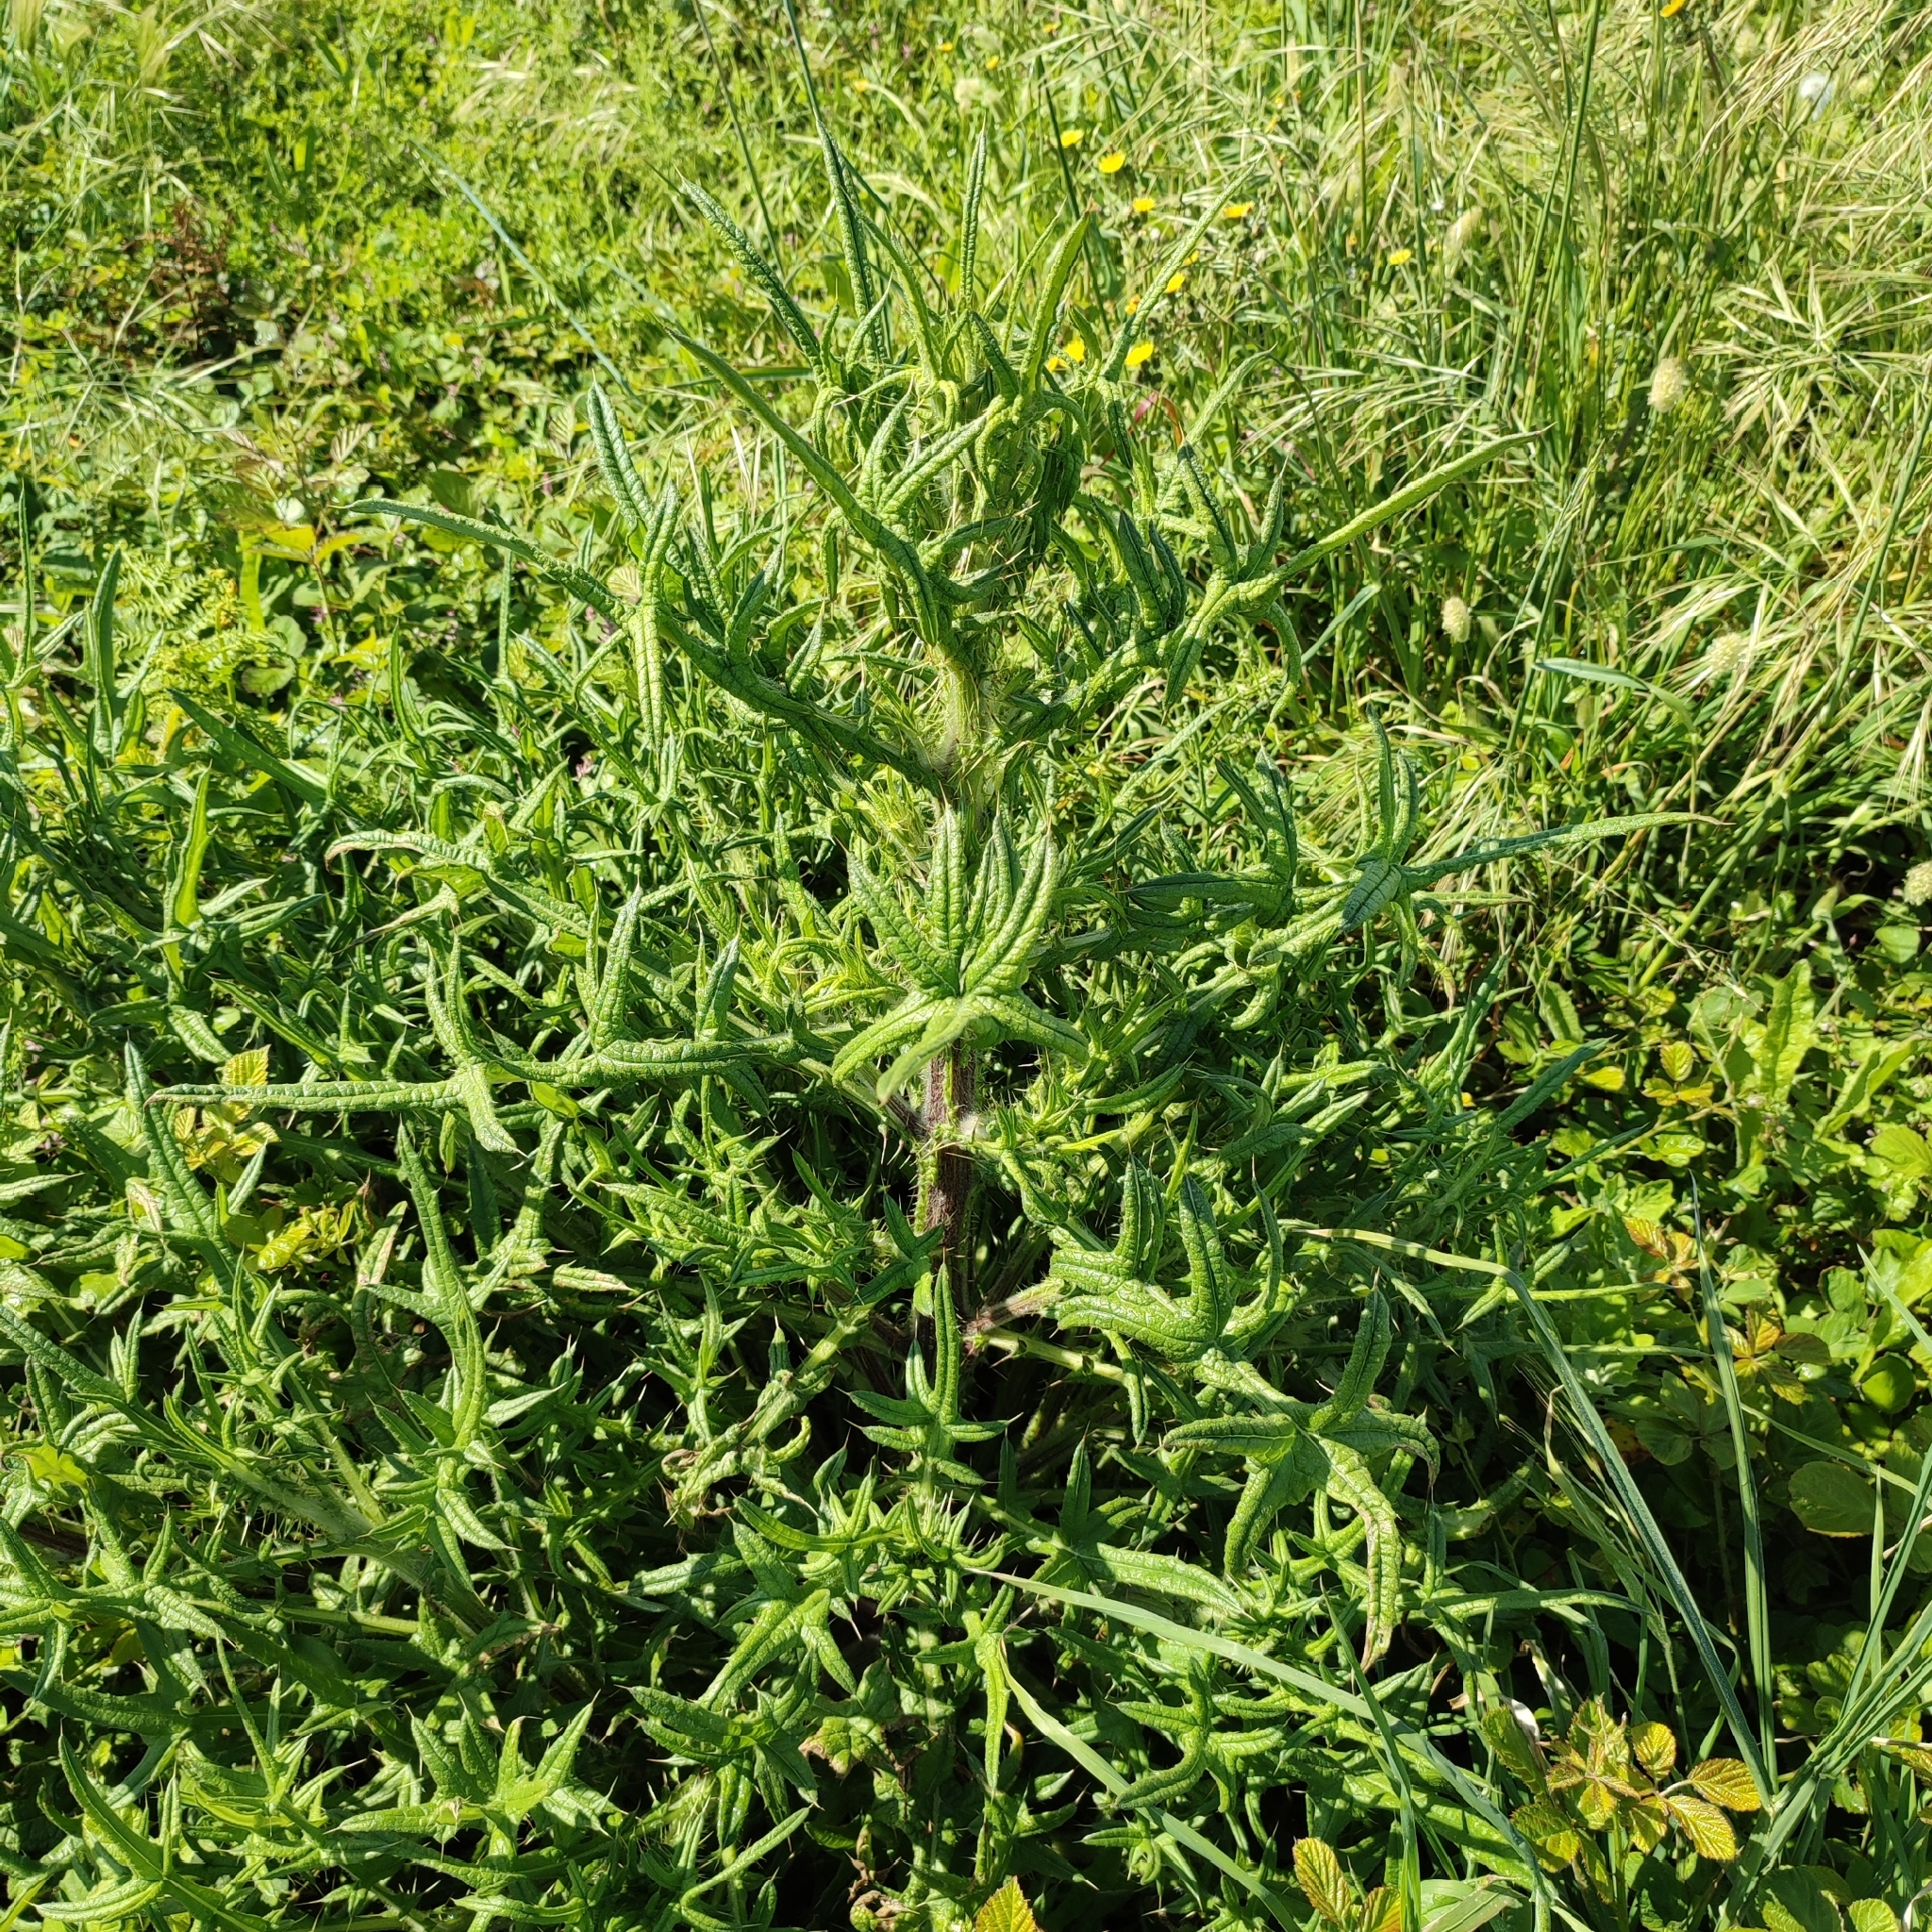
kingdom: Plantae
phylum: Tracheophyta
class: Magnoliopsida
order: Asterales
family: Asteraceae
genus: Cirsium
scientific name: Cirsium vulgare
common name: Bull thistle
